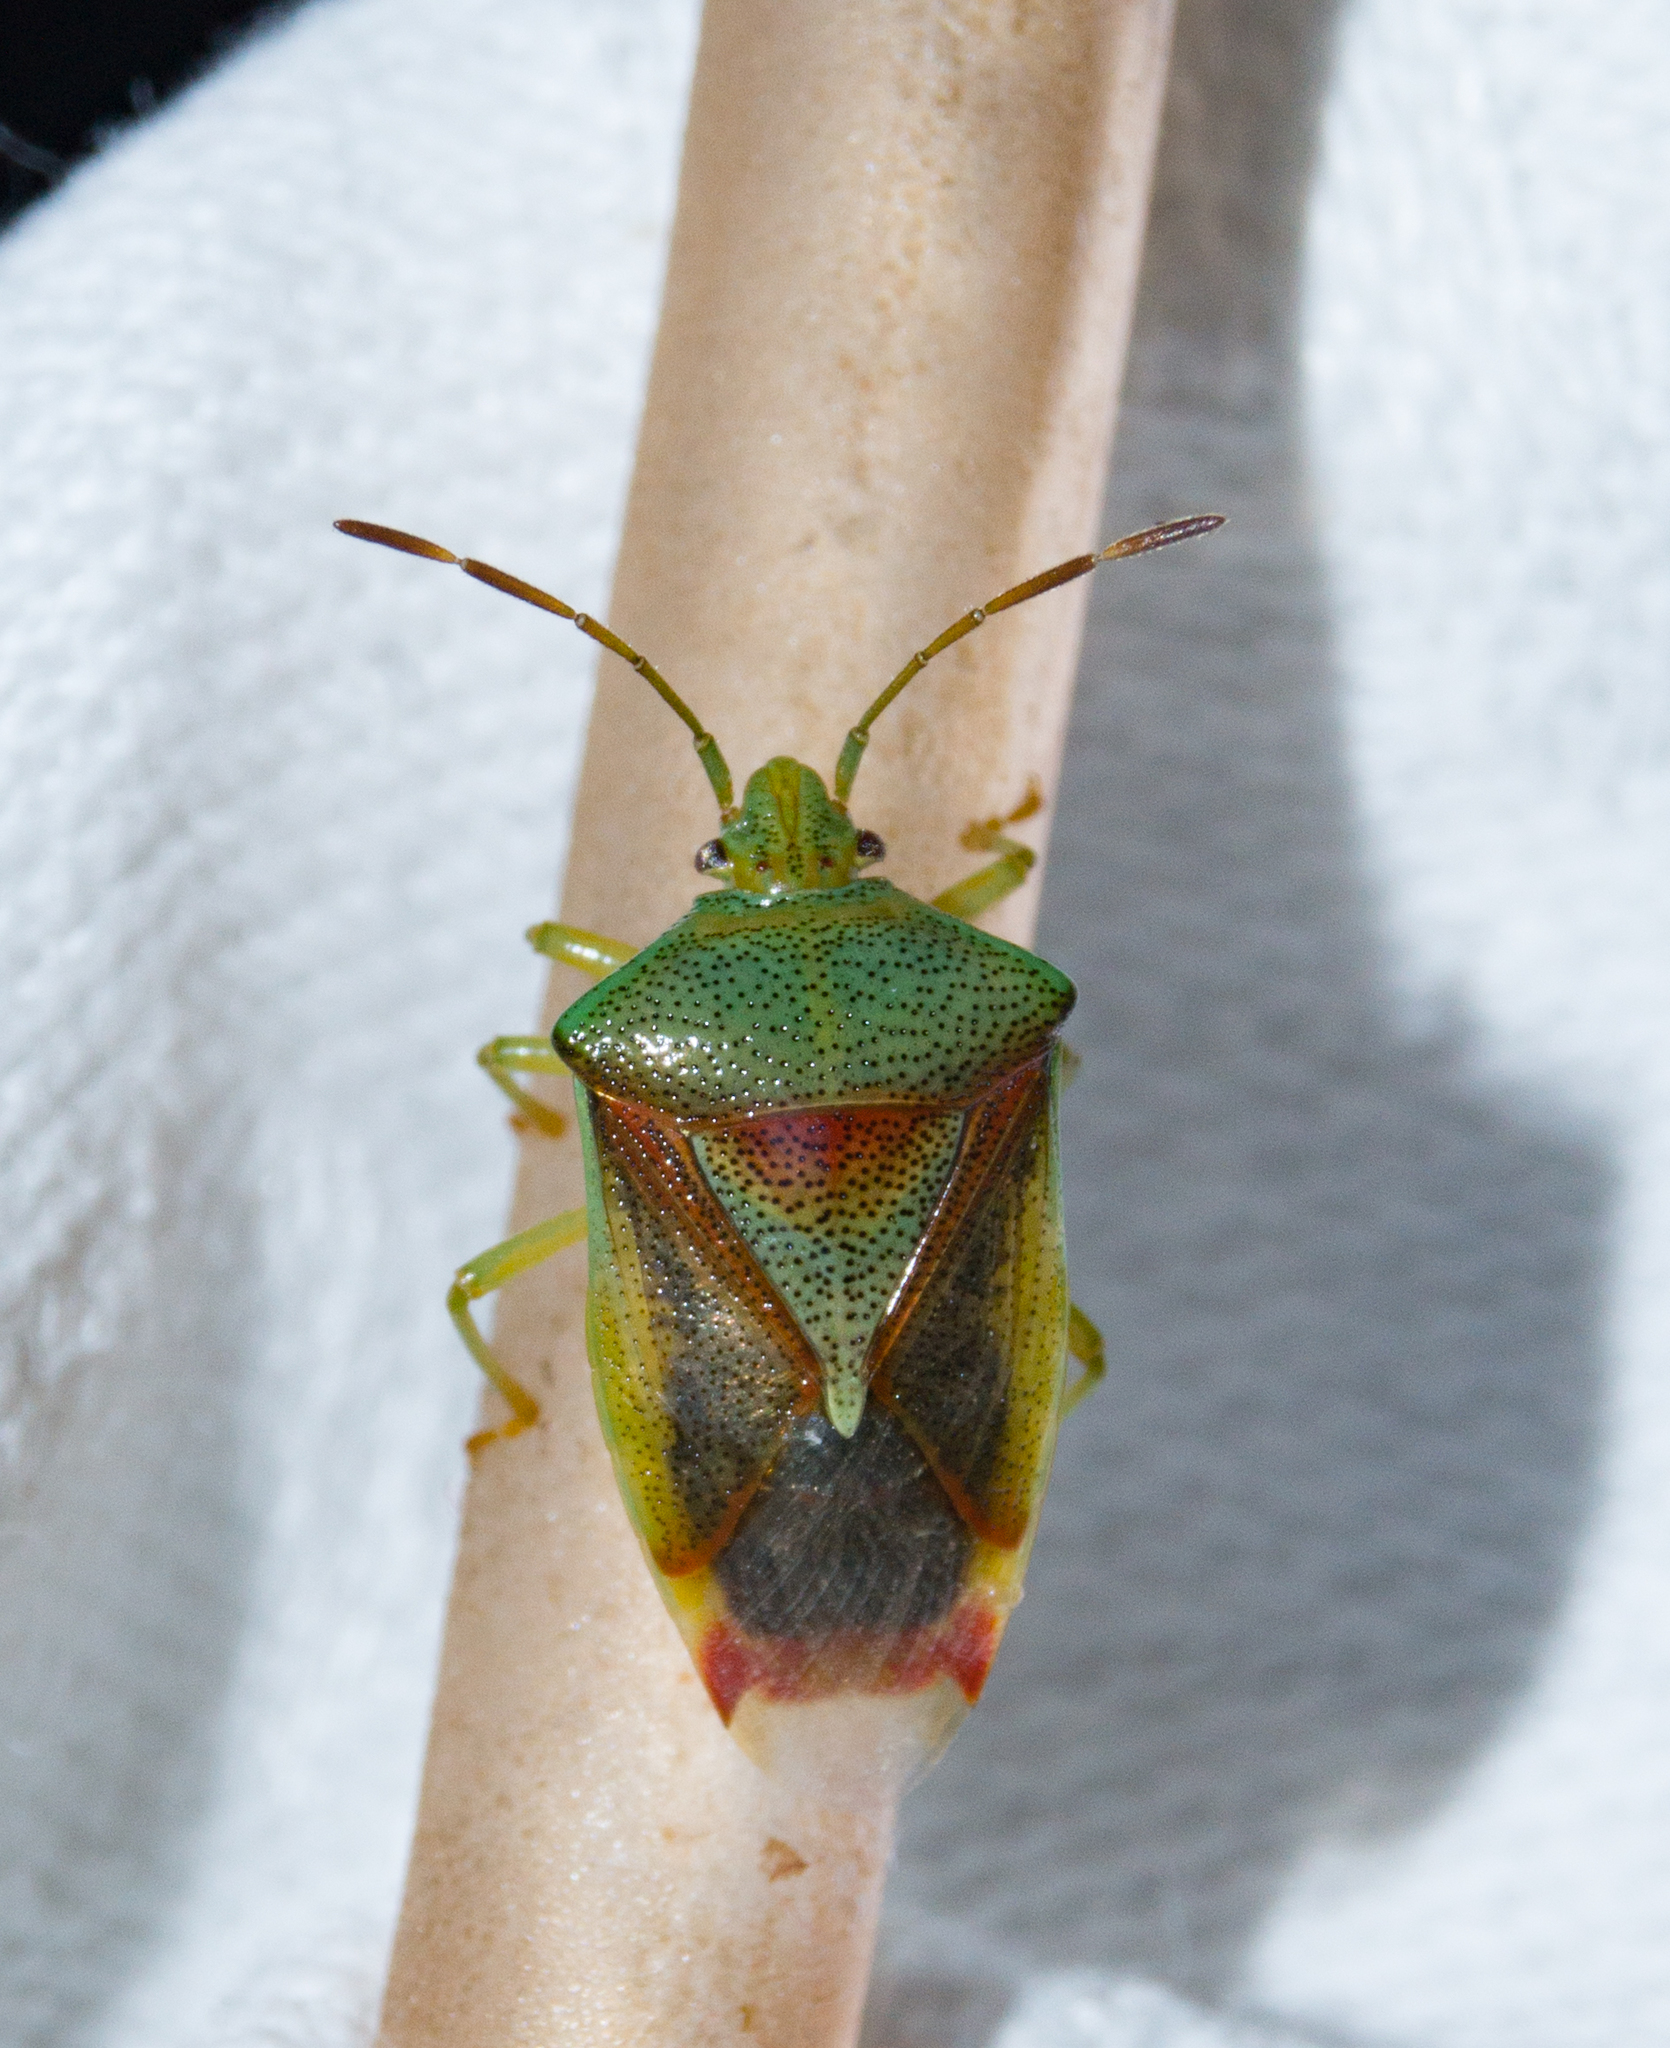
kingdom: Animalia
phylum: Arthropoda
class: Insecta
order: Hemiptera
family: Acanthosomatidae
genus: Elasmostethus
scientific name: Elasmostethus interstinctus
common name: Birch shieldbug
